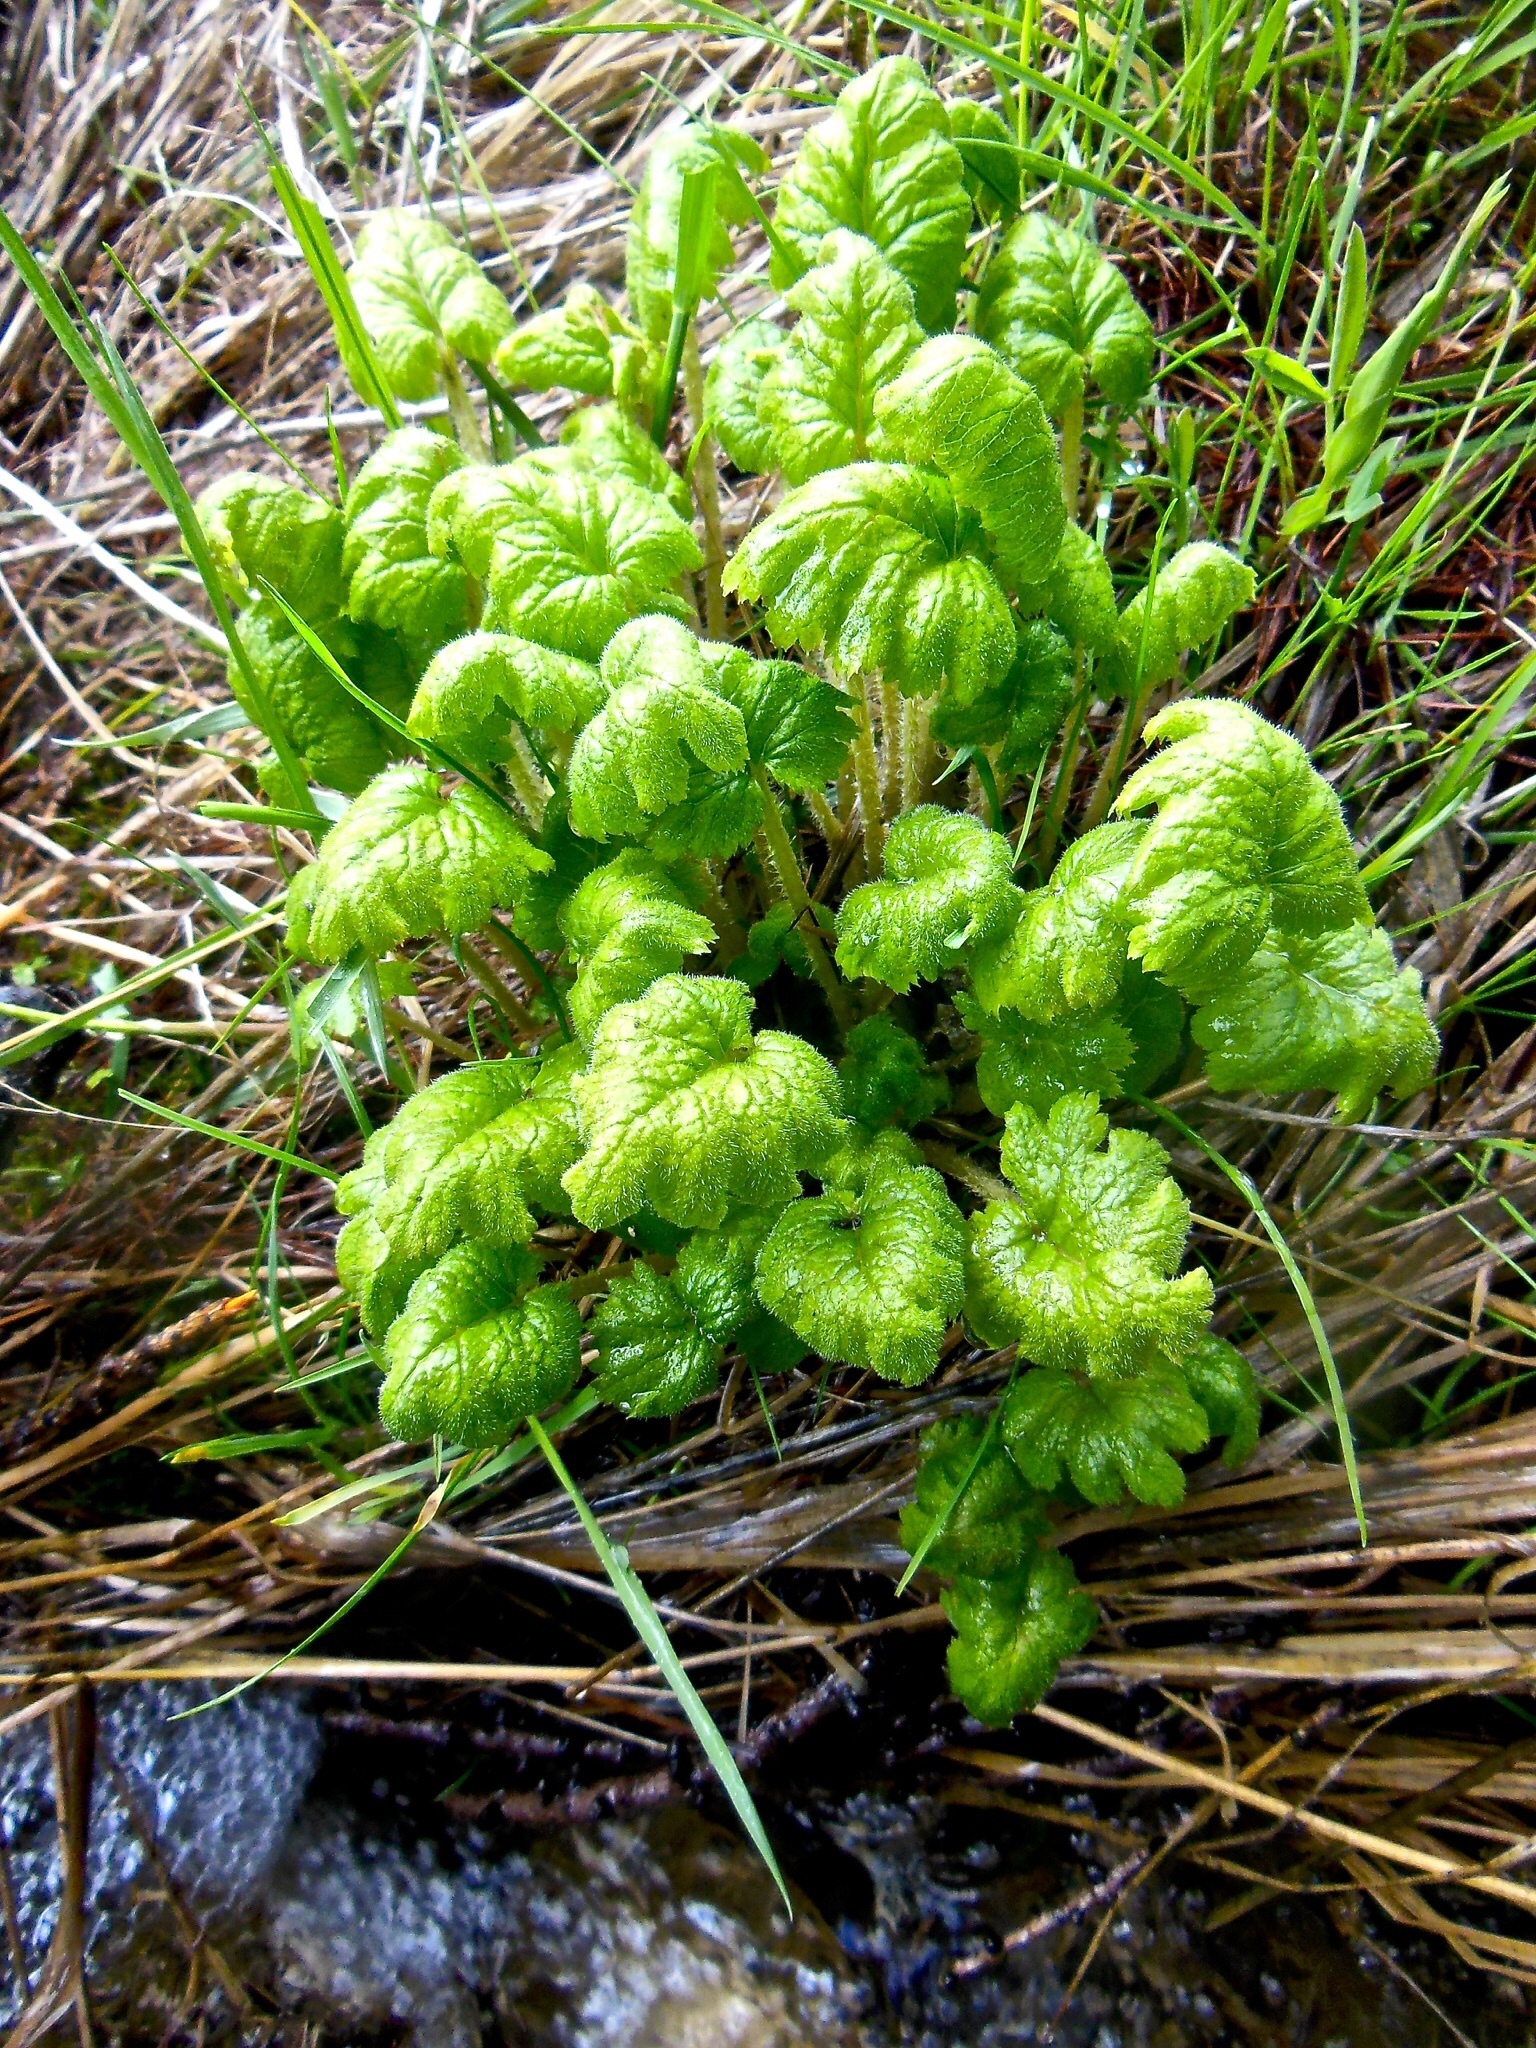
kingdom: Plantae
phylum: Tracheophyta
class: Magnoliopsida
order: Ericales
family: Primulaceae
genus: Primula
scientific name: Primula matthioli
